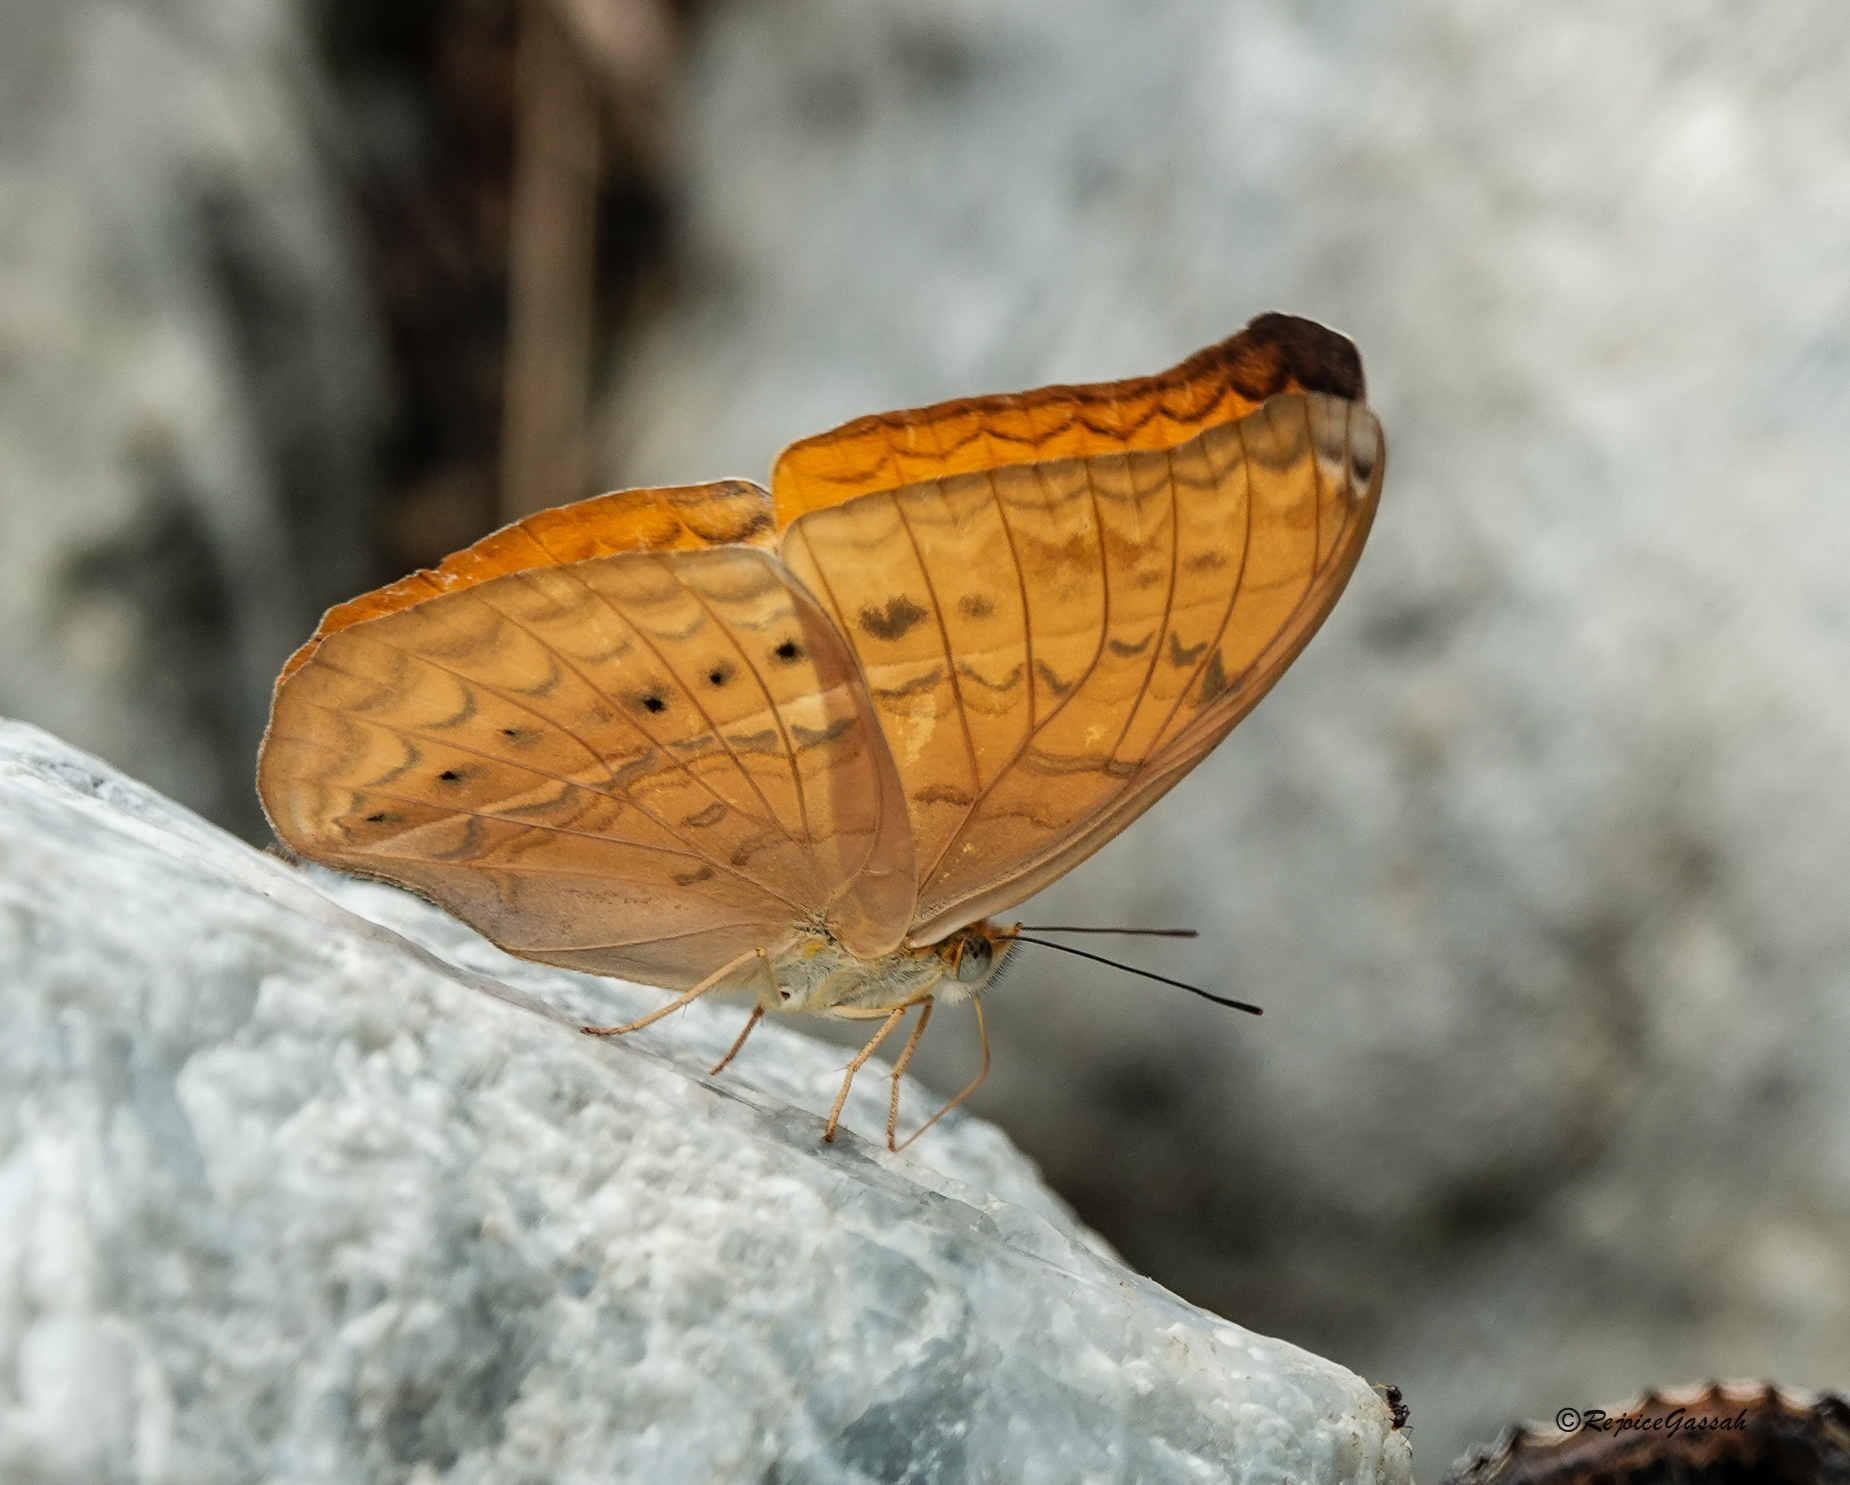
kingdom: Animalia
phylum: Arthropoda
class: Insecta
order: Lepidoptera
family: Nymphalidae
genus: Cirrochroa
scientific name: Cirrochroa tyche
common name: Common yeoman
